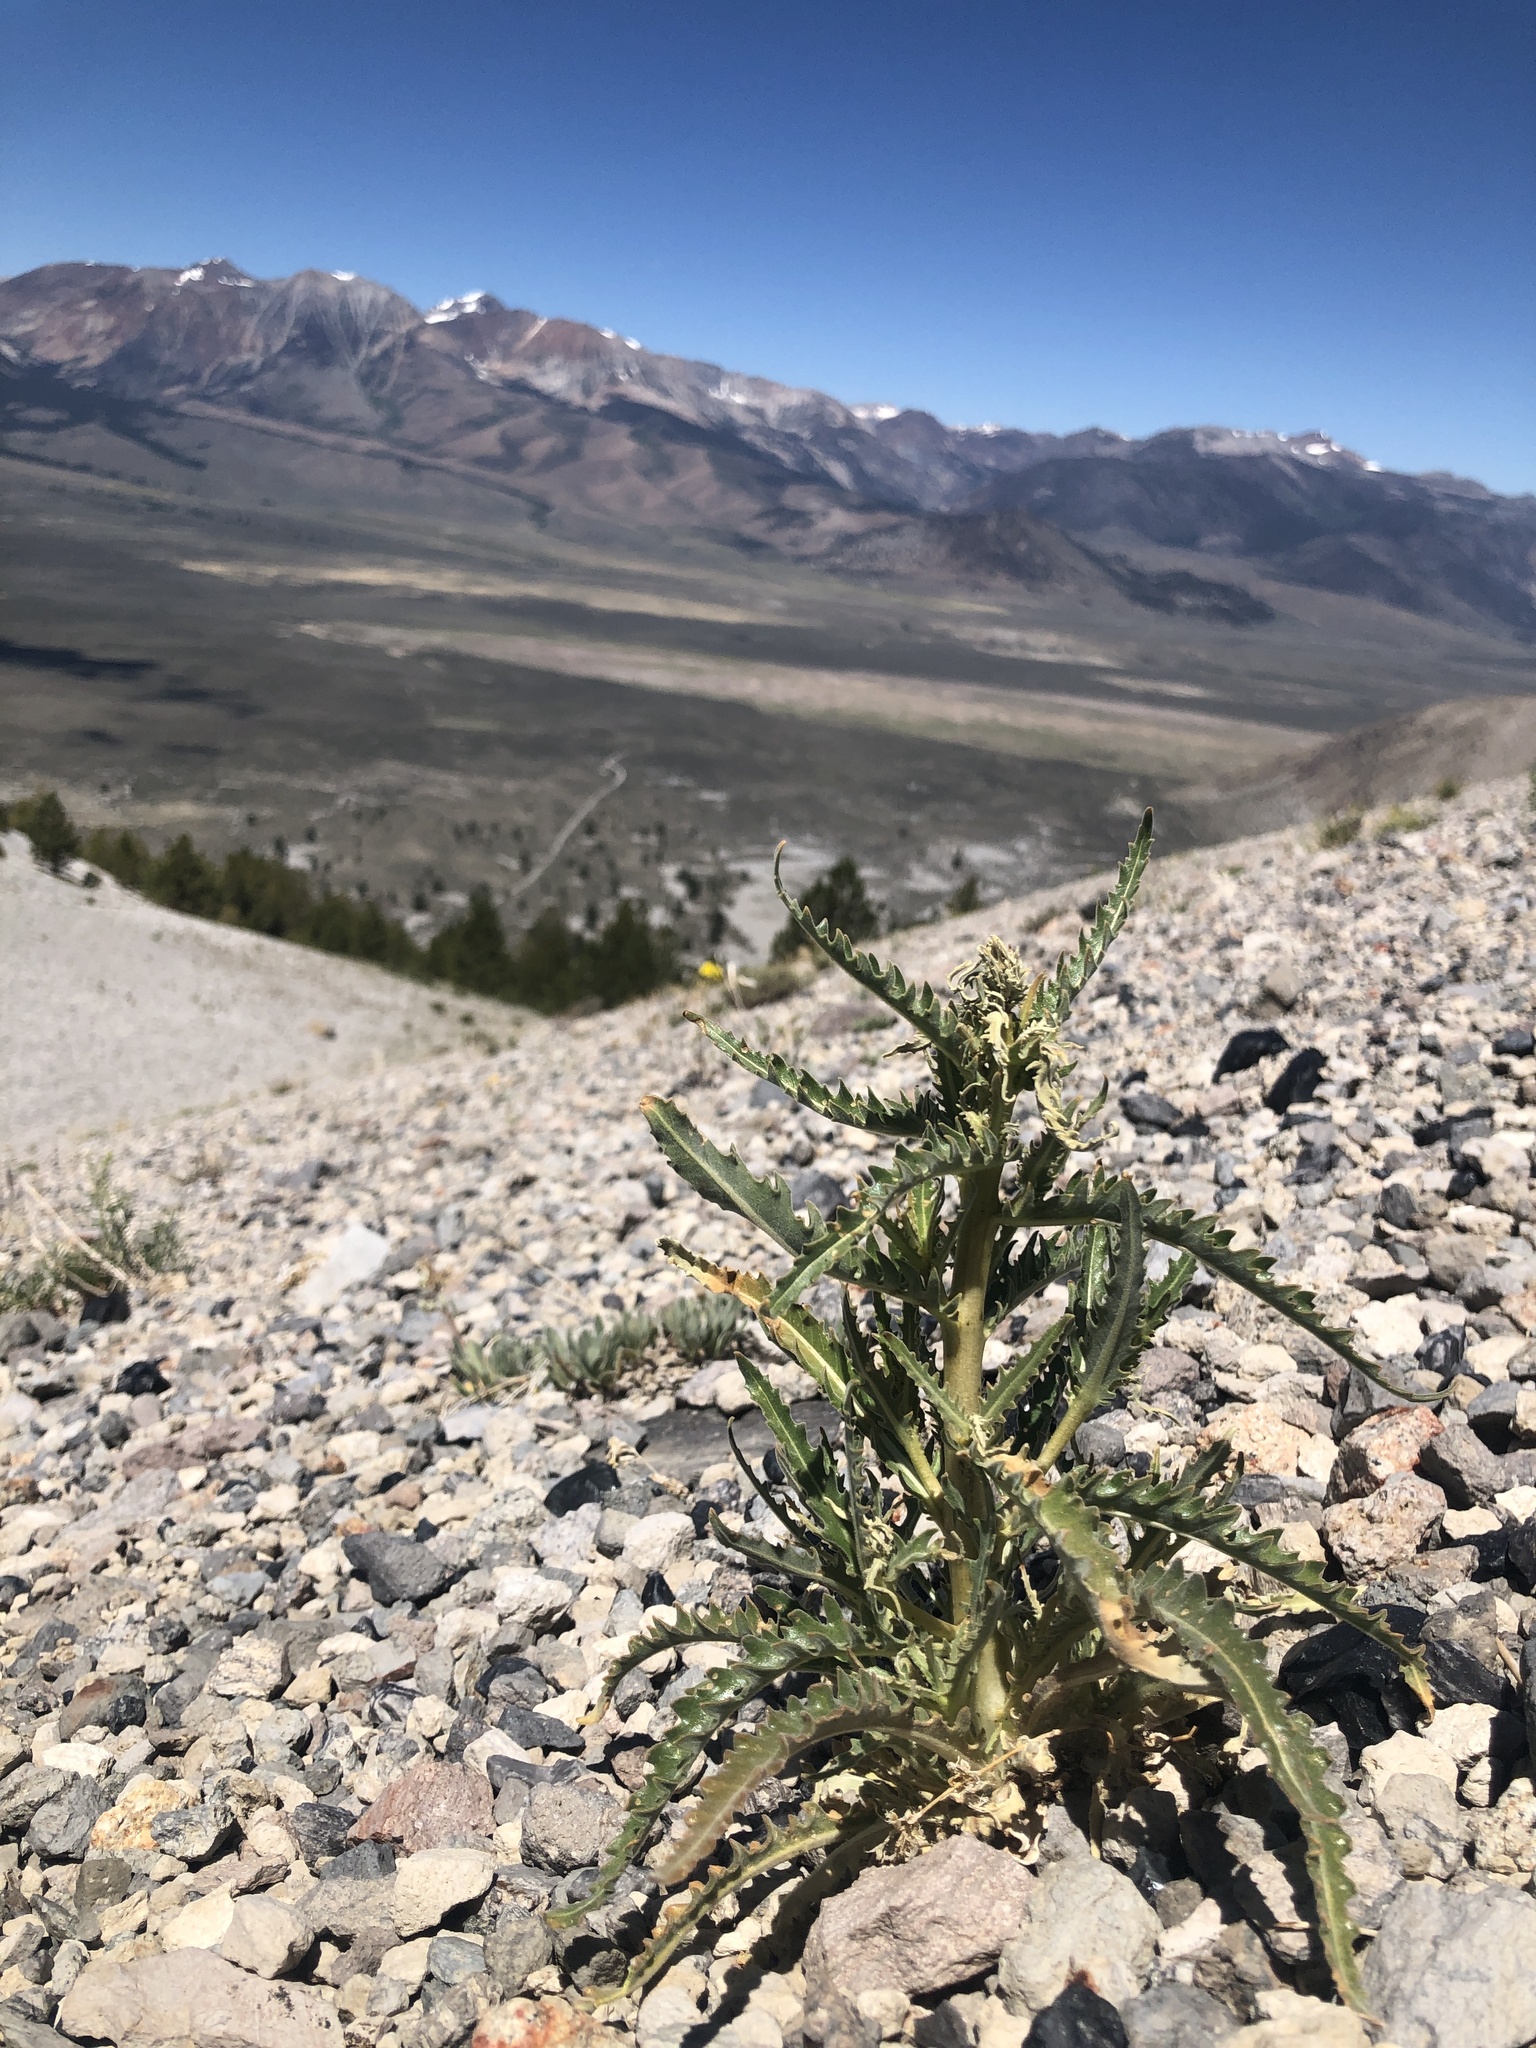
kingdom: Plantae
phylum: Tracheophyta
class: Magnoliopsida
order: Cornales
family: Loasaceae
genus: Mentzelia
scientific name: Mentzelia laevicaulis
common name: Smooth-stem blazingstar
